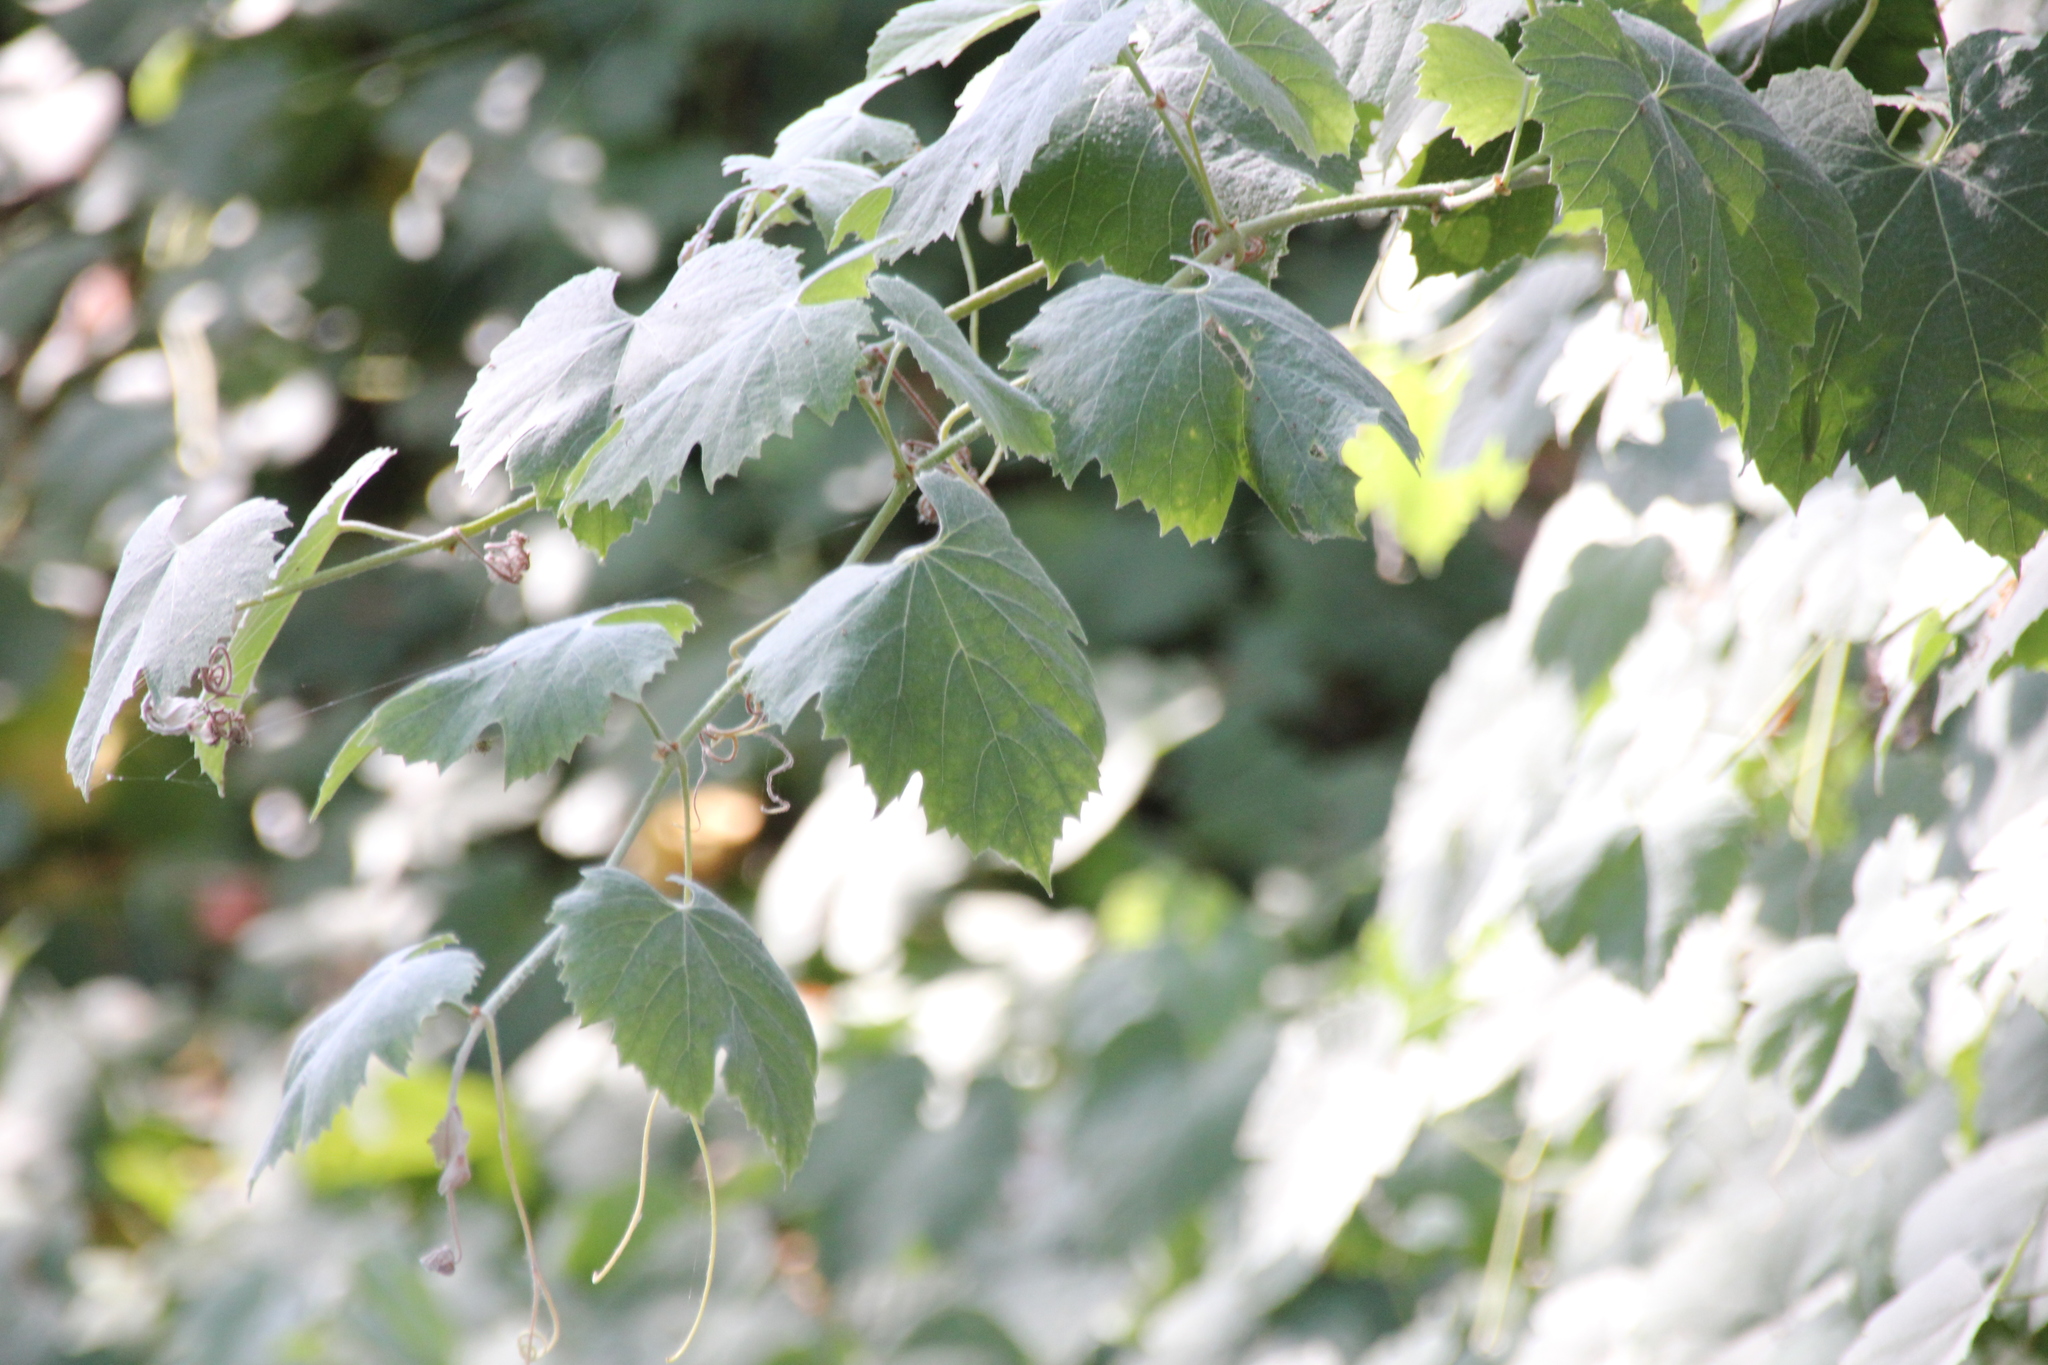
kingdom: Plantae
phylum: Tracheophyta
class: Magnoliopsida
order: Vitales
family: Vitaceae
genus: Vitis
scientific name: Vitis girdiana
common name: Desert wild grape
